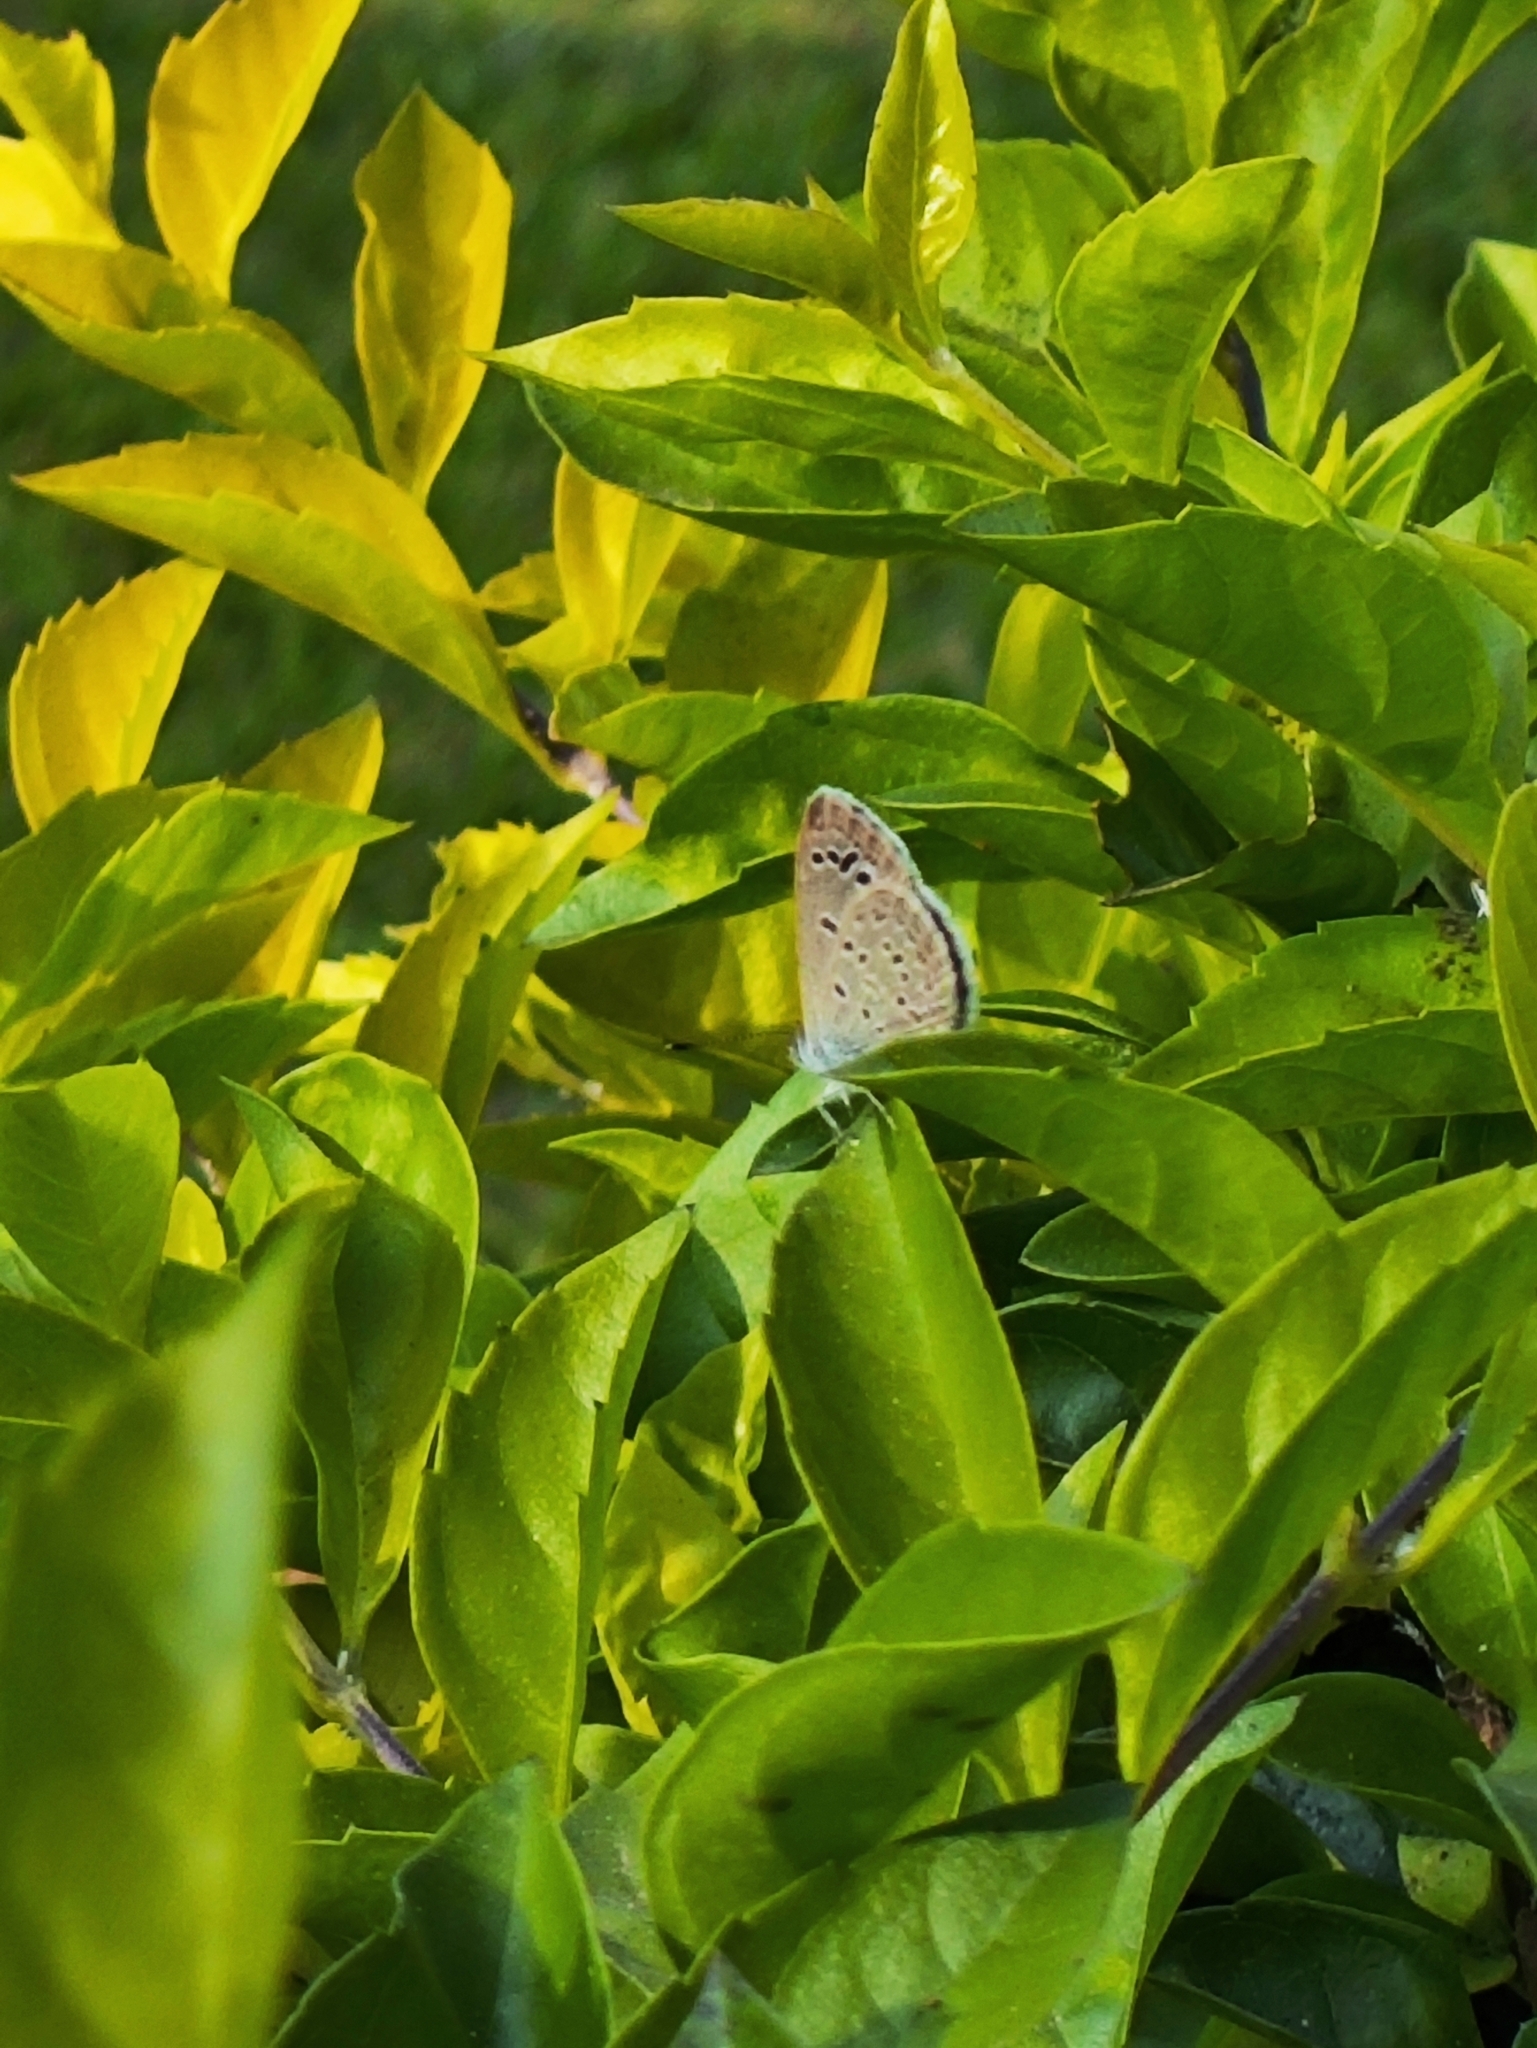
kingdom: Animalia
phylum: Arthropoda
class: Insecta
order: Lepidoptera
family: Lycaenidae
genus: Zizina
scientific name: Zizina otis
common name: Lesser grass blue
